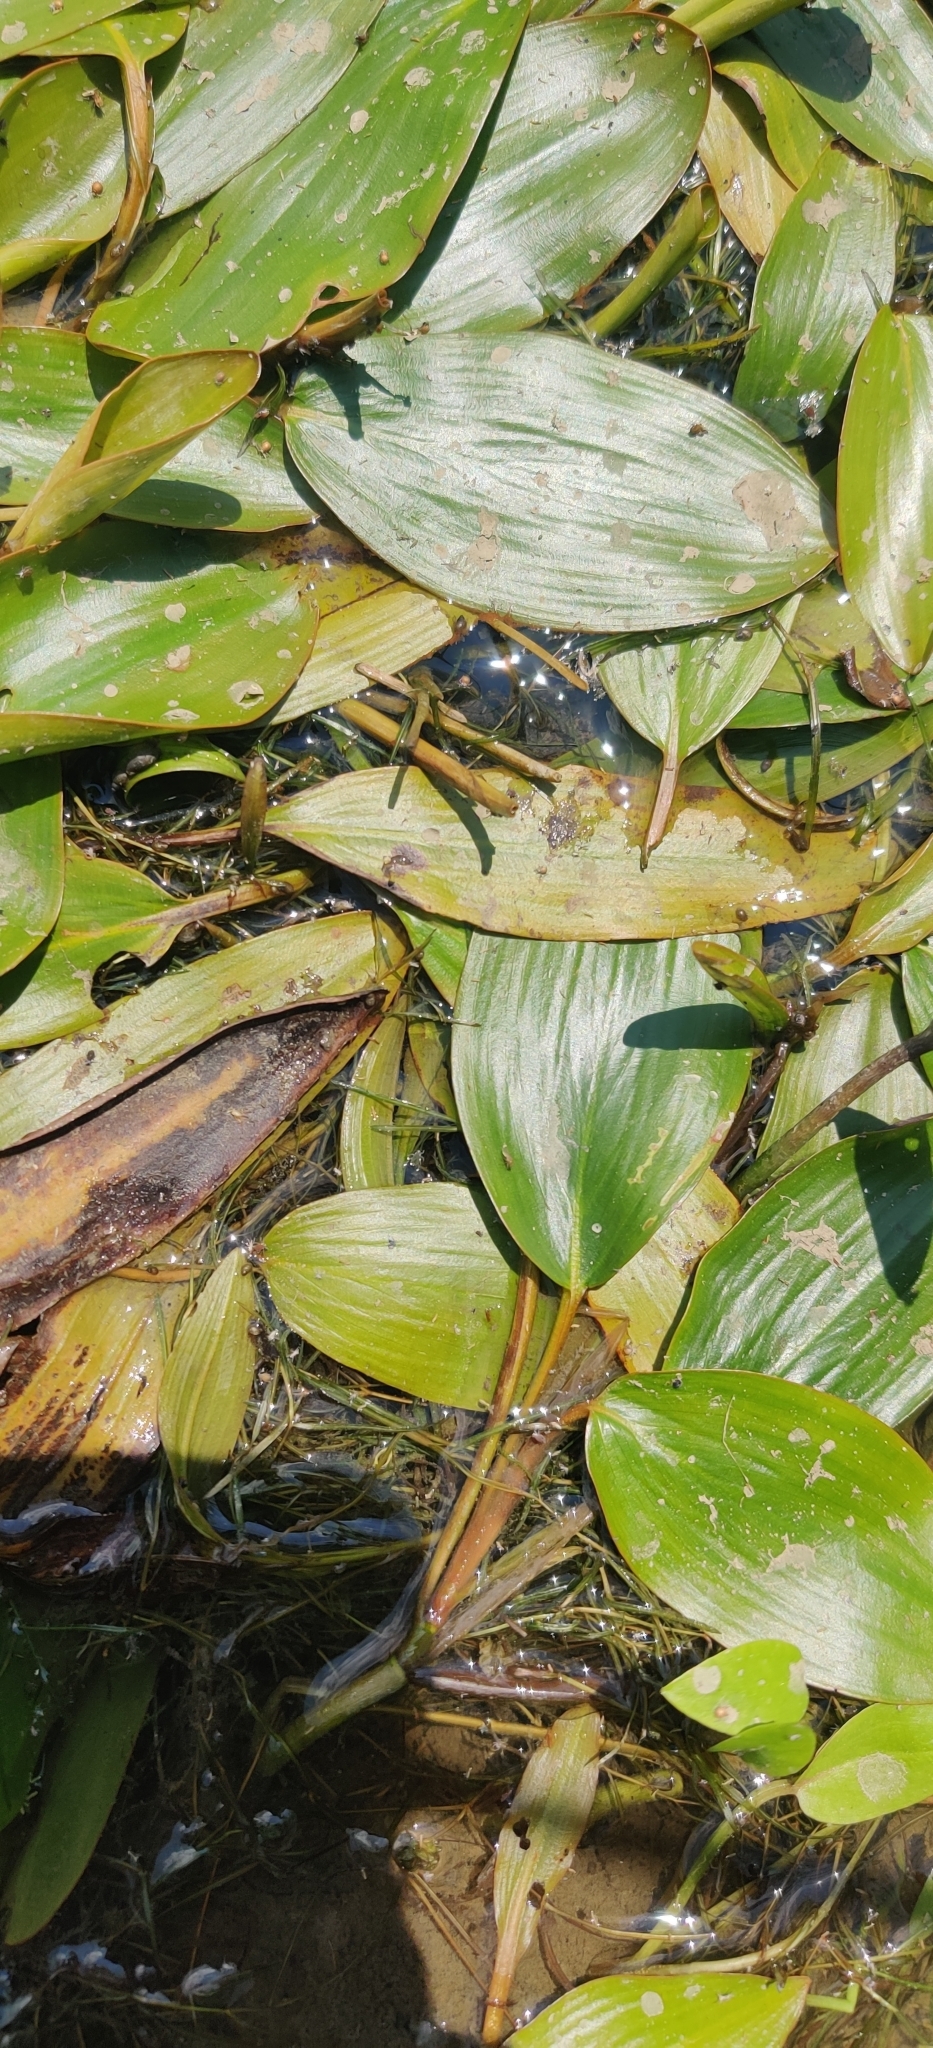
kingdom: Plantae
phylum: Tracheophyta
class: Liliopsida
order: Alismatales
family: Potamogetonaceae
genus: Potamogeton
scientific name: Potamogeton natans
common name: Broad-leaved pondweed
